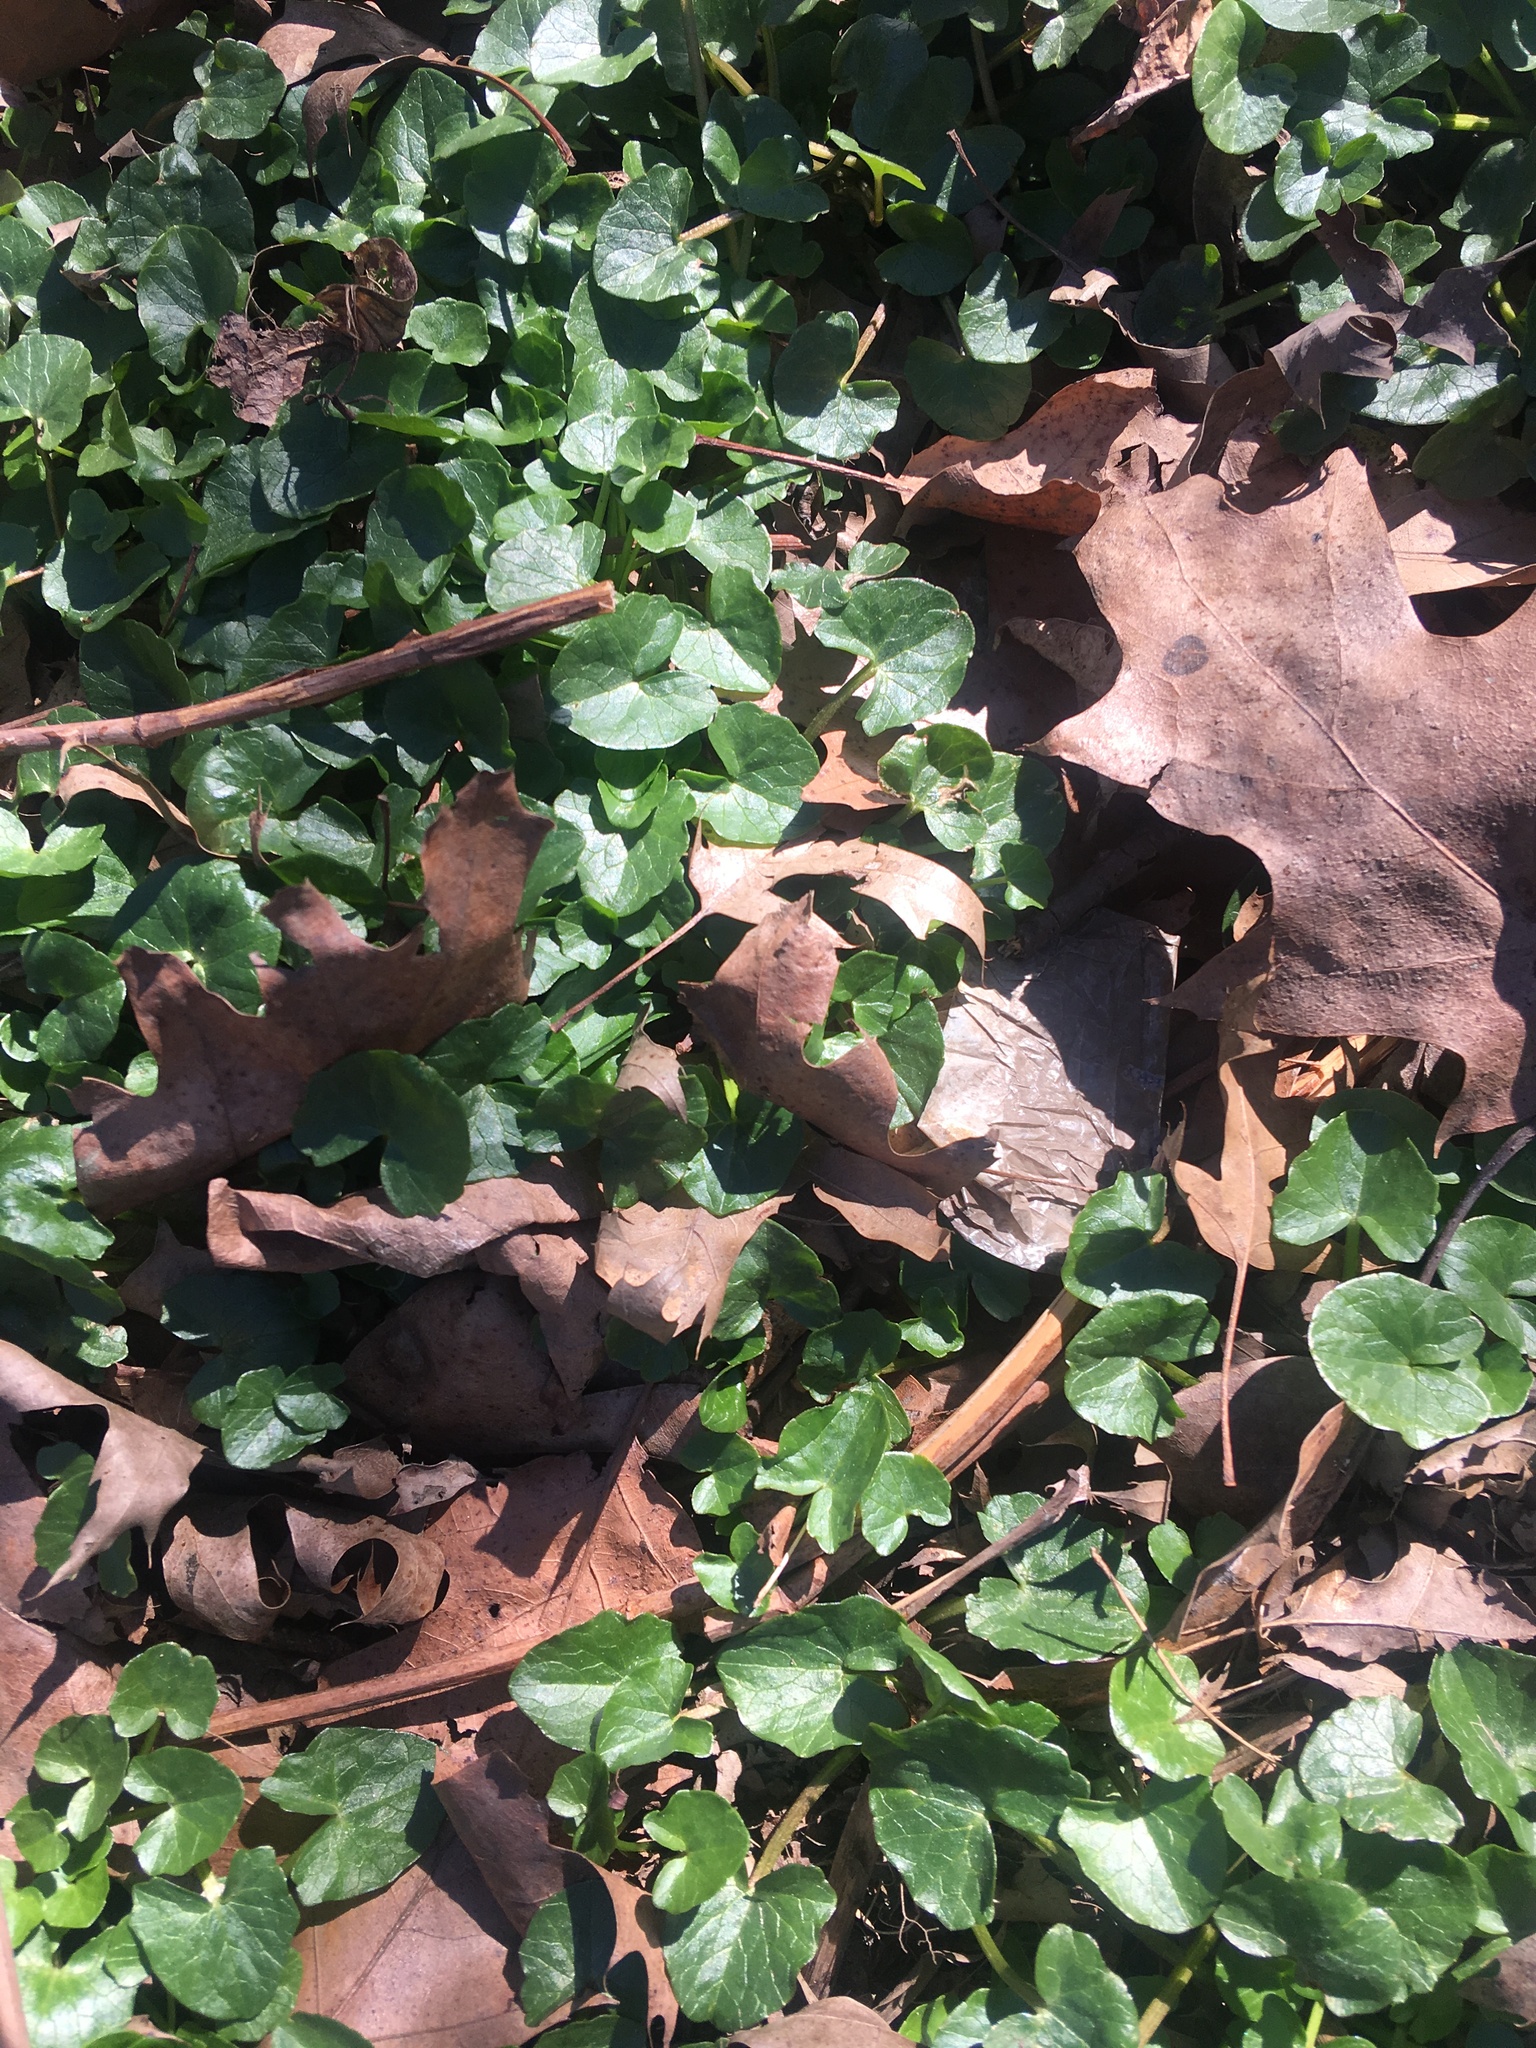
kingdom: Plantae
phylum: Tracheophyta
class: Magnoliopsida
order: Ranunculales
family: Ranunculaceae
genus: Ficaria
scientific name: Ficaria verna
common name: Lesser celandine
